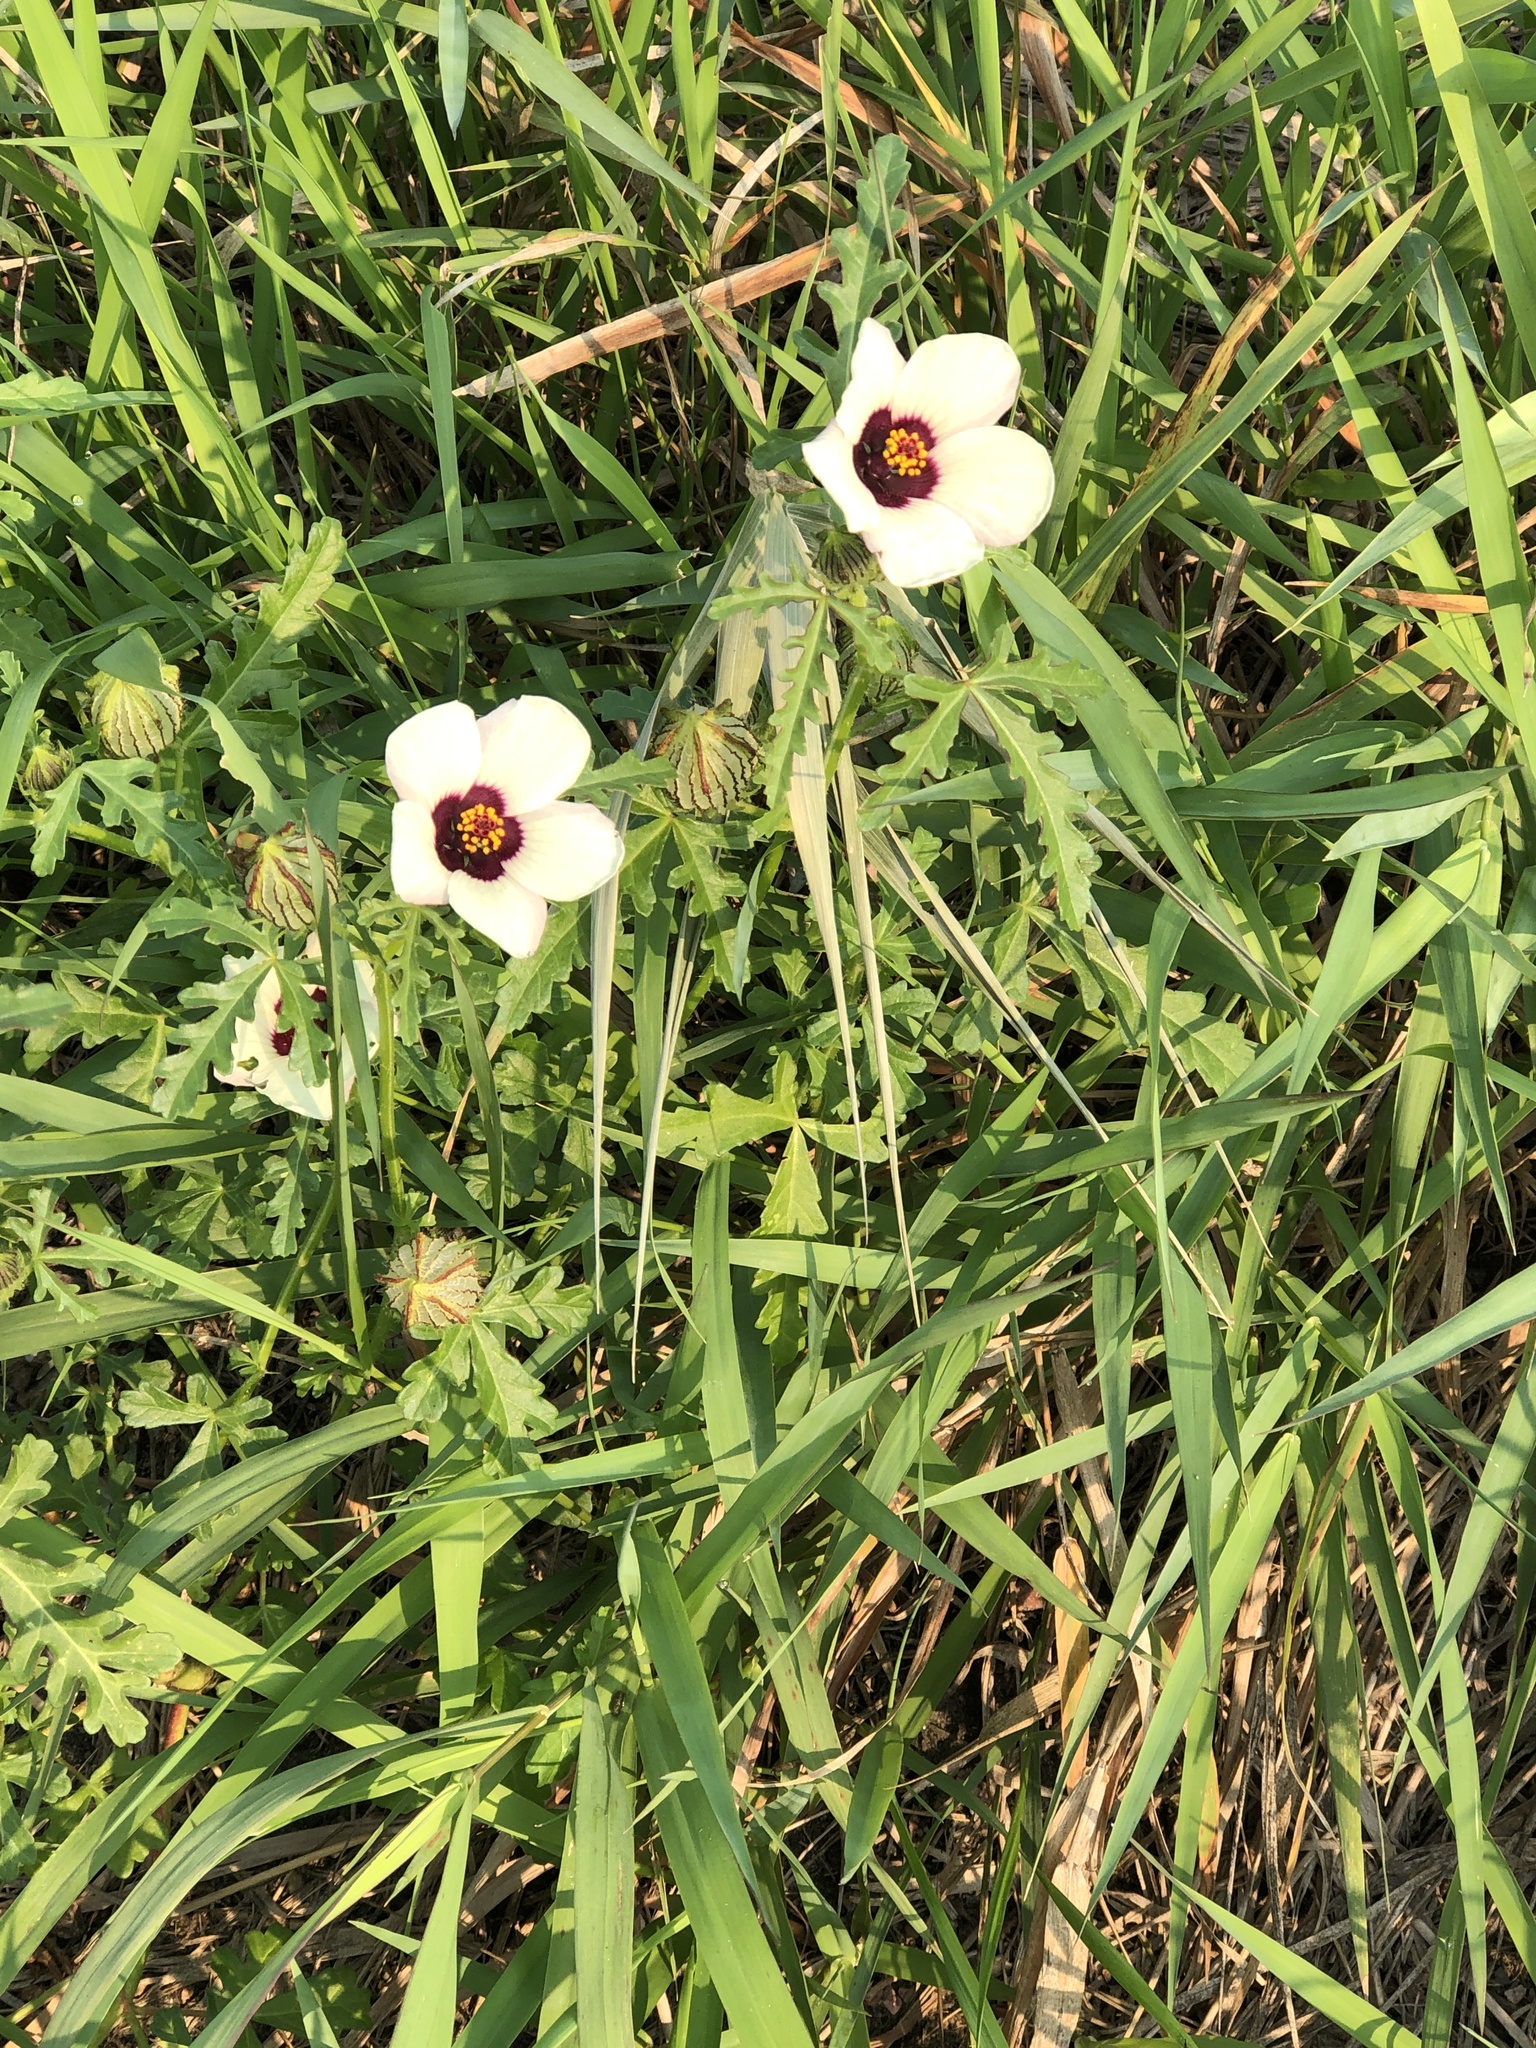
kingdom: Plantae
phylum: Tracheophyta
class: Magnoliopsida
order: Malvales
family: Malvaceae
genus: Hibiscus
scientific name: Hibiscus trionum
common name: Bladder ketmia
